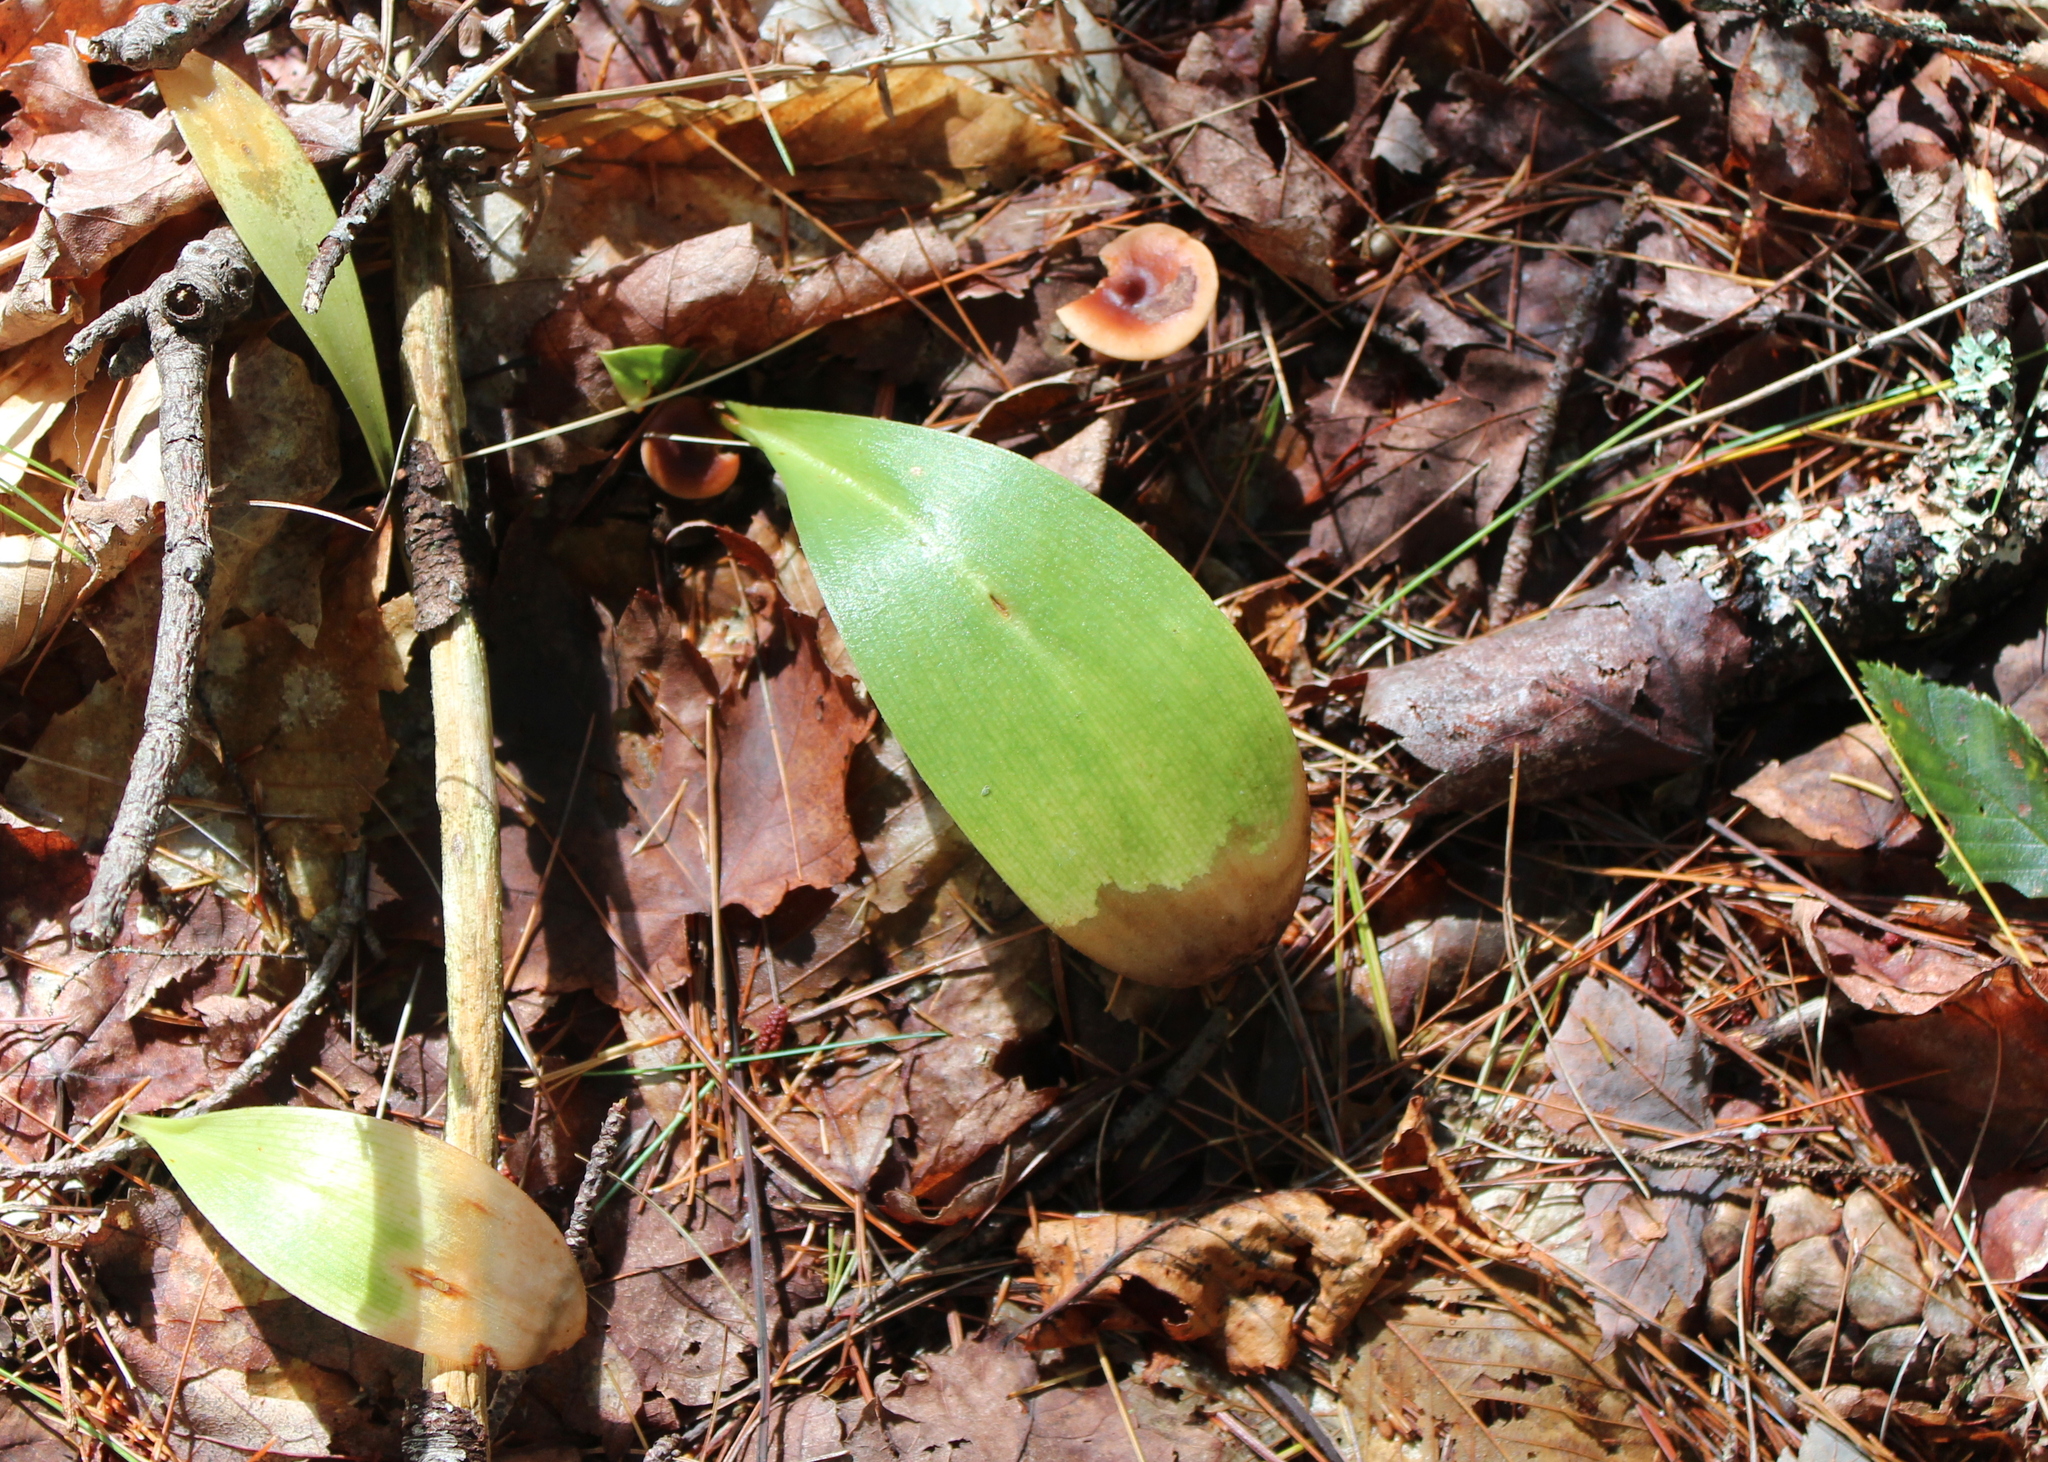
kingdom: Plantae
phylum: Tracheophyta
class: Liliopsida
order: Liliales
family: Liliaceae
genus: Clintonia
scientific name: Clintonia borealis
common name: Yellow clintonia
